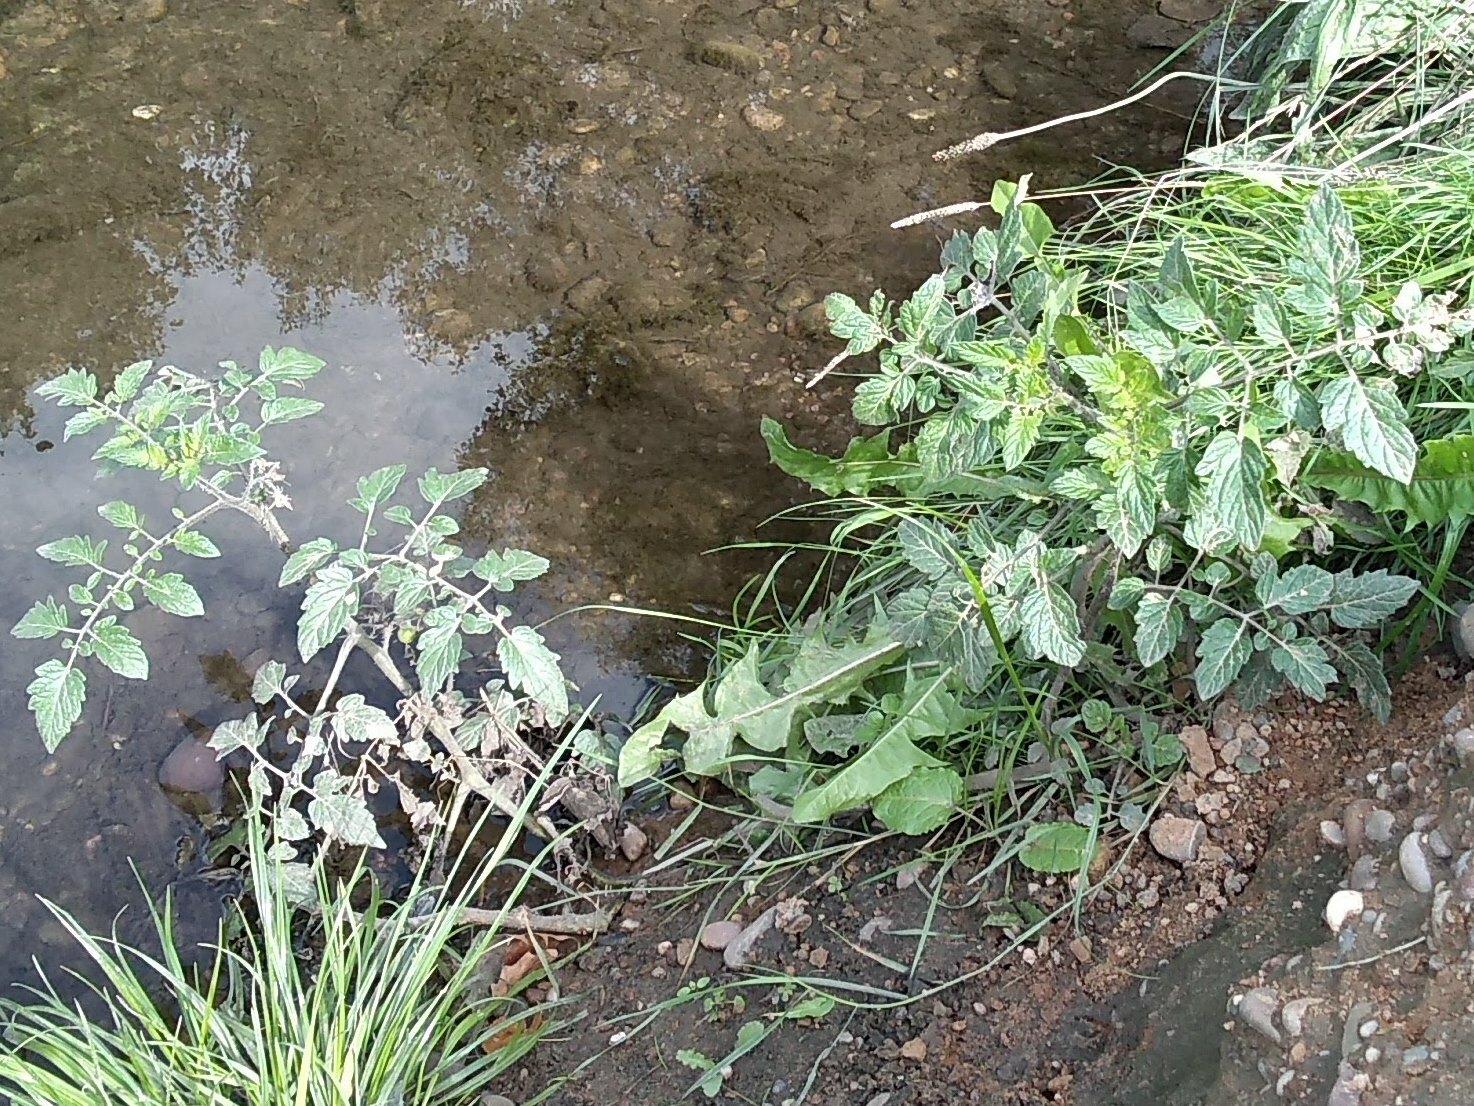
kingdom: Plantae
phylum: Tracheophyta
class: Magnoliopsida
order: Solanales
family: Solanaceae
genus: Solanum
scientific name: Solanum lycopersicum
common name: Garden tomato
